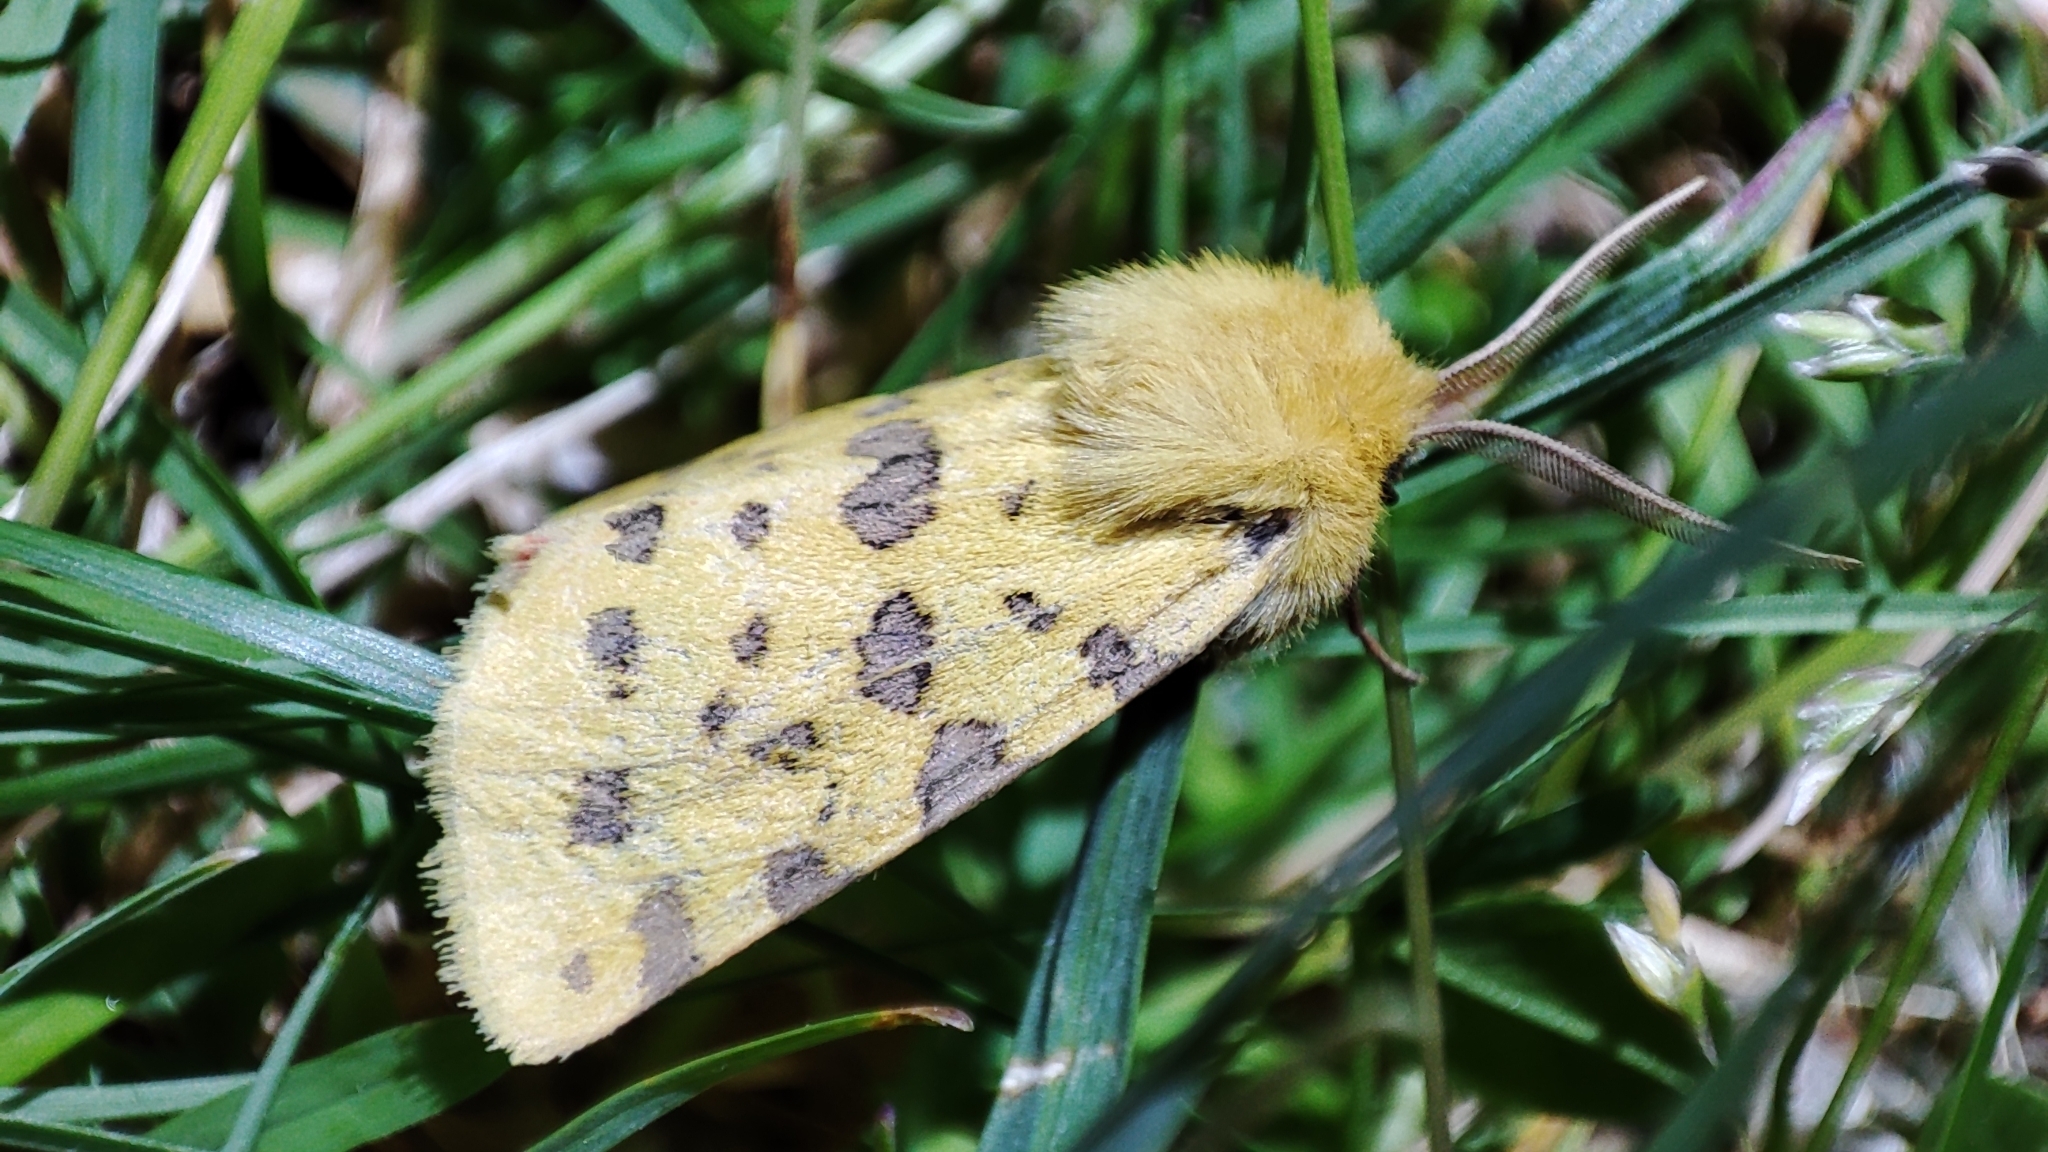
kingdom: Animalia
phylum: Arthropoda
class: Insecta
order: Lepidoptera
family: Erebidae
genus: Rhyparia
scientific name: Rhyparia purpurata
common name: Purple tiger
